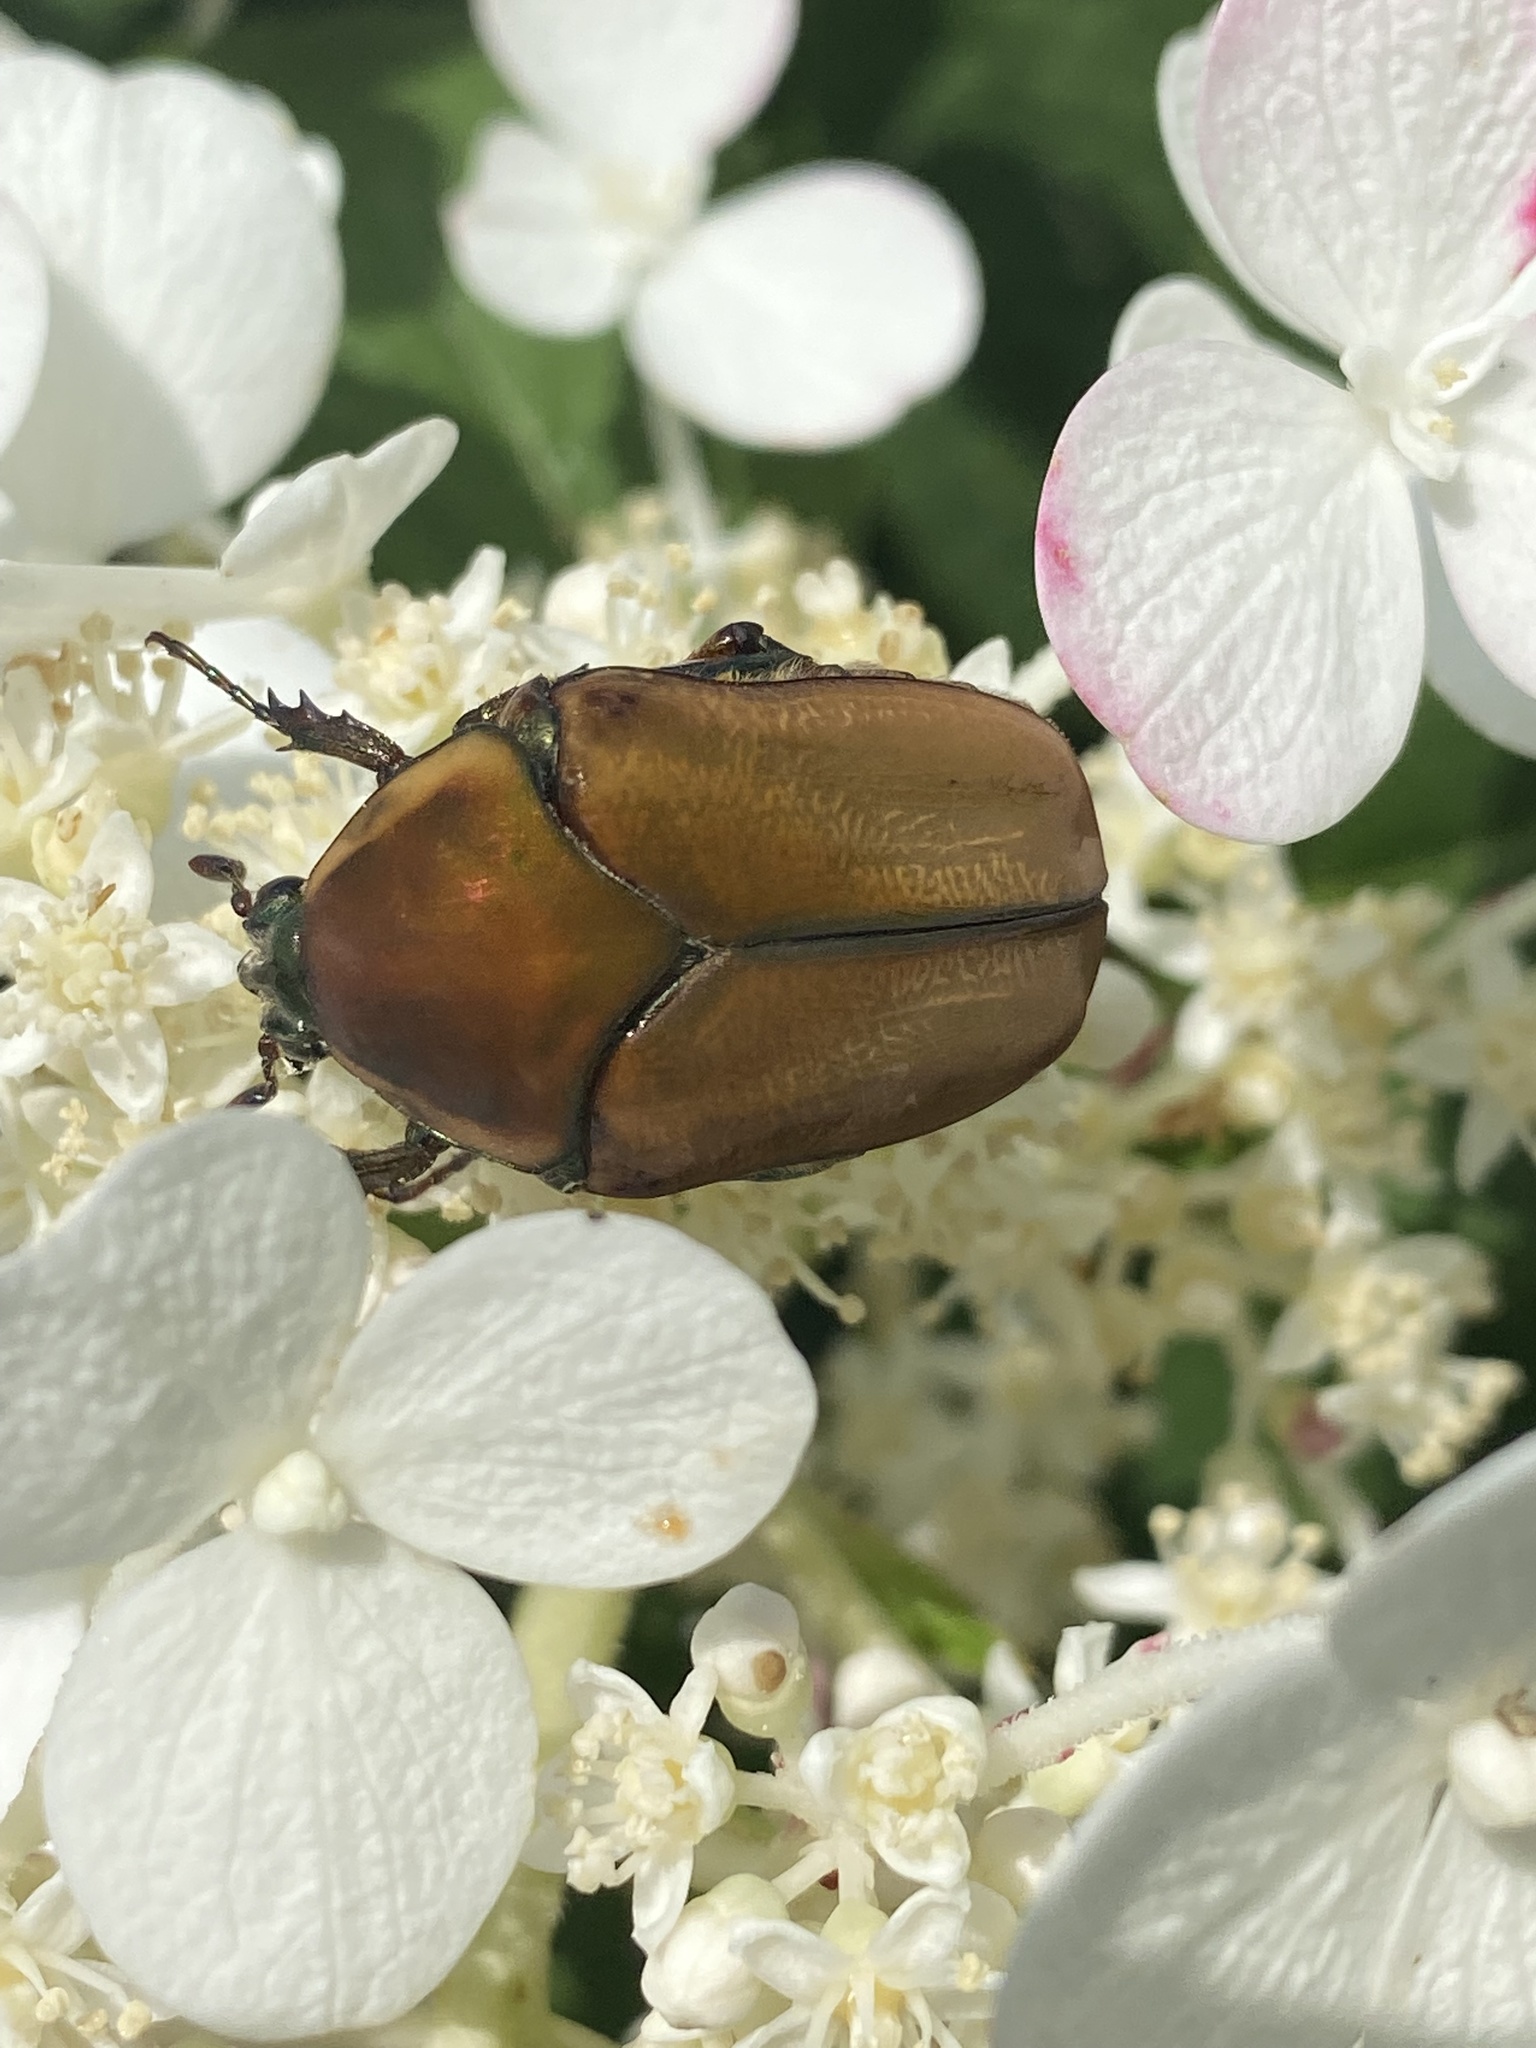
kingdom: Animalia
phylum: Arthropoda
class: Insecta
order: Coleoptera
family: Scarabaeidae
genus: Cotinis
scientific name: Cotinis nitida
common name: Common green june beetle
